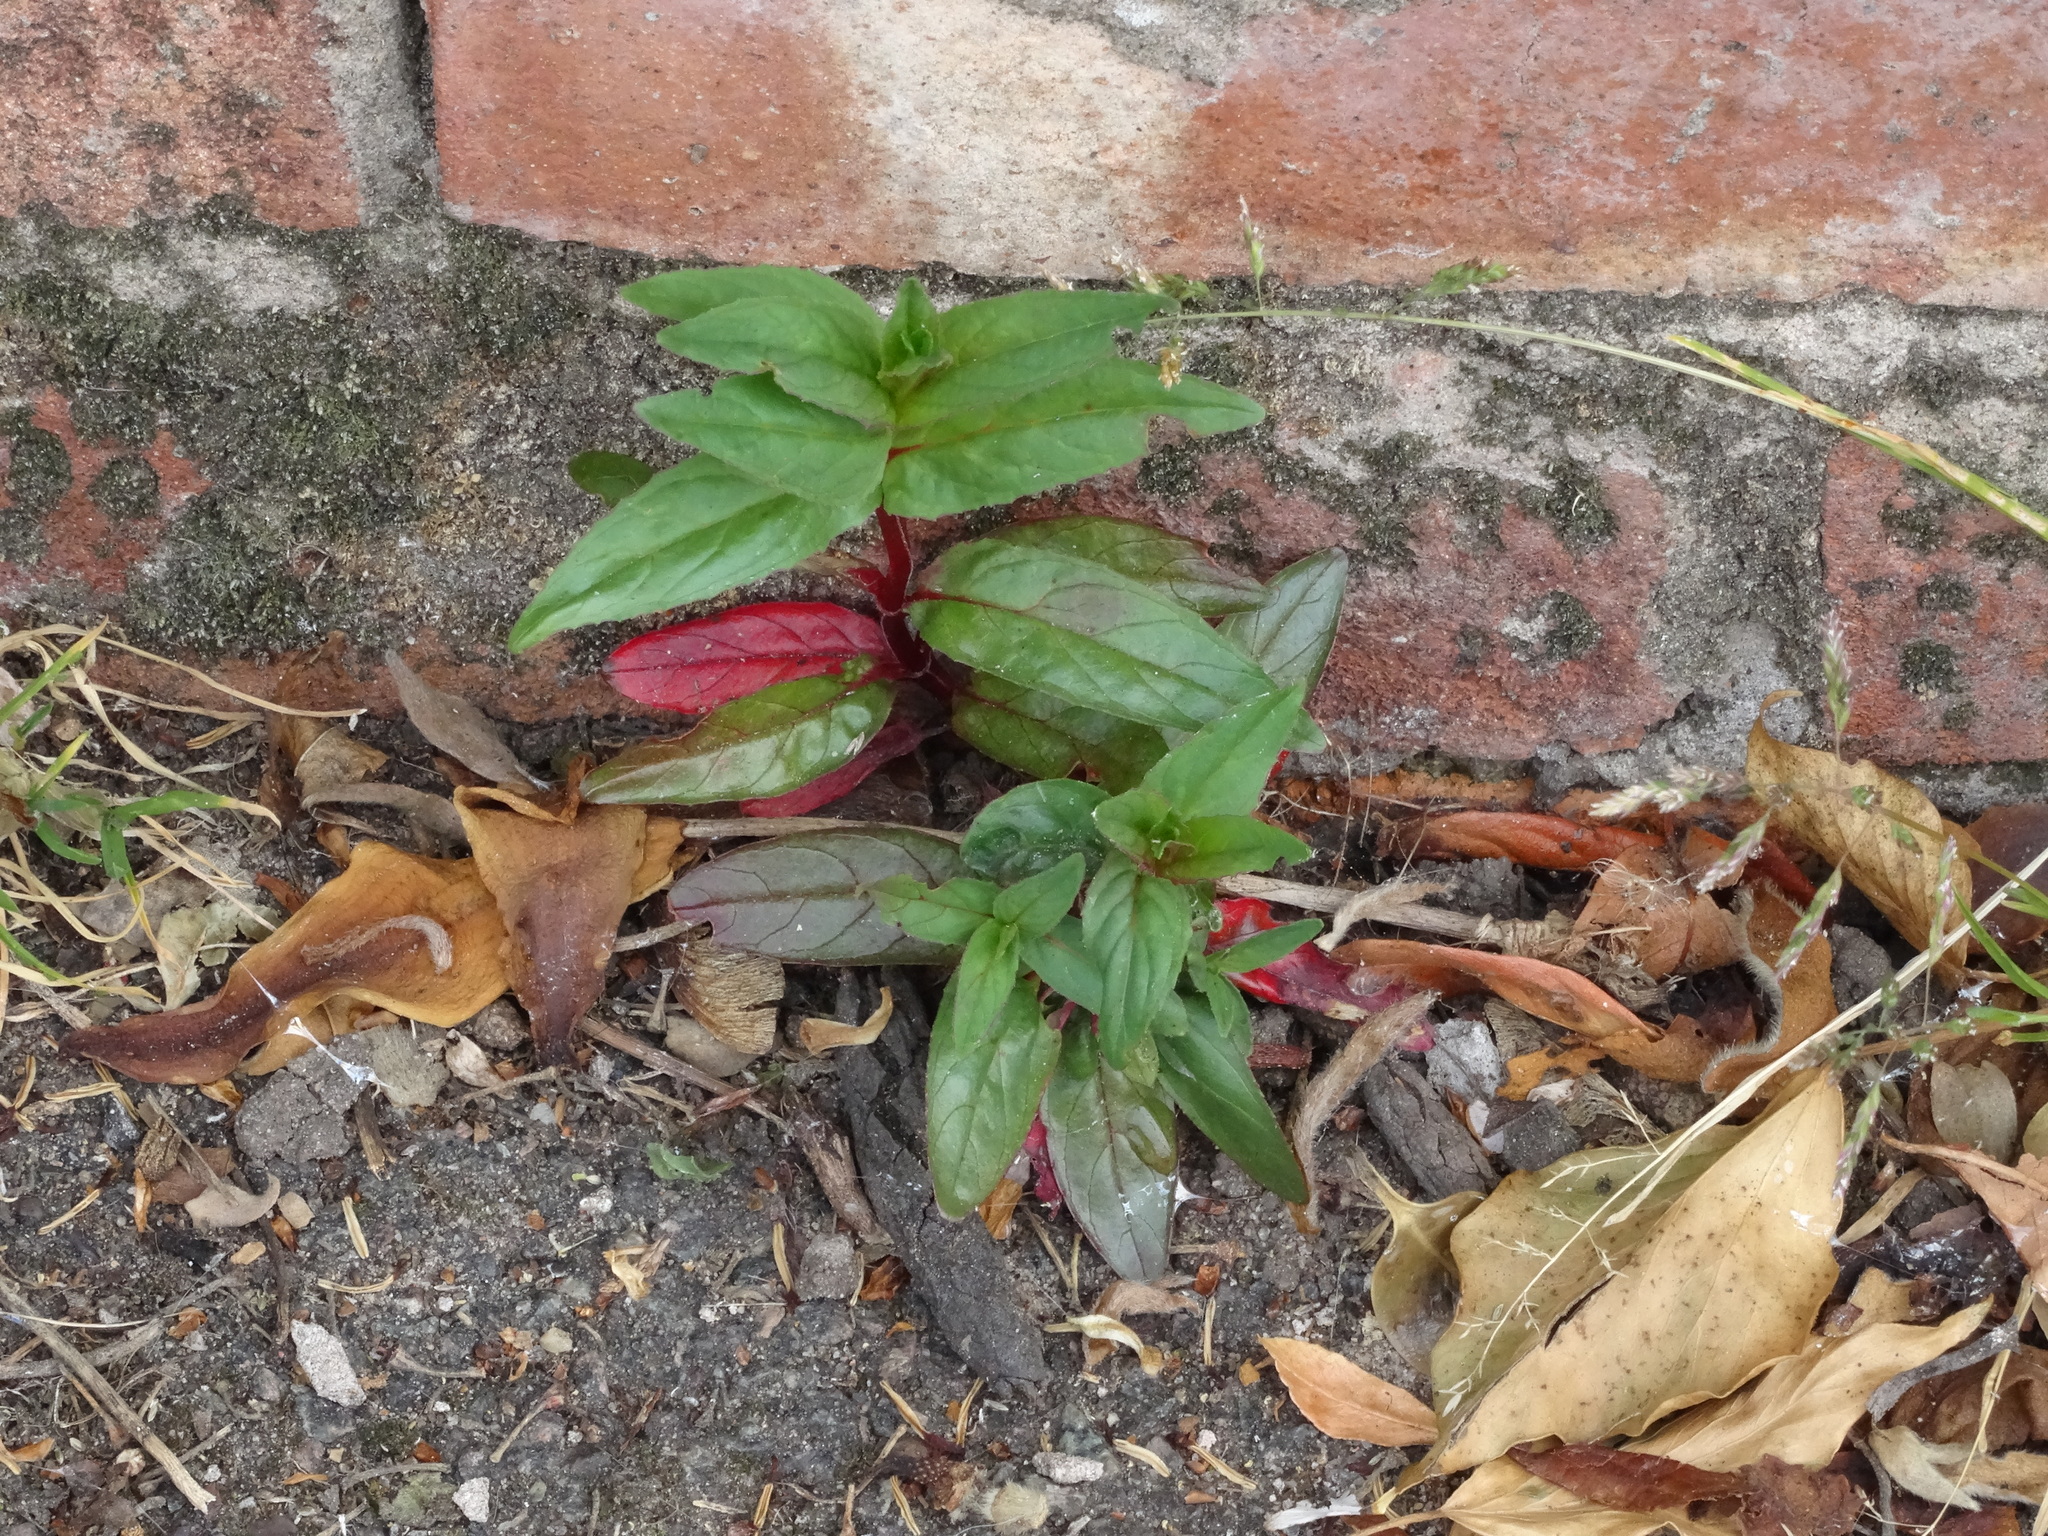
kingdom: Plantae
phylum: Tracheophyta
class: Magnoliopsida
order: Myrtales
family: Onagraceae
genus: Epilobium
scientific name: Epilobium montanum
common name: Broad-leaved willowherb
